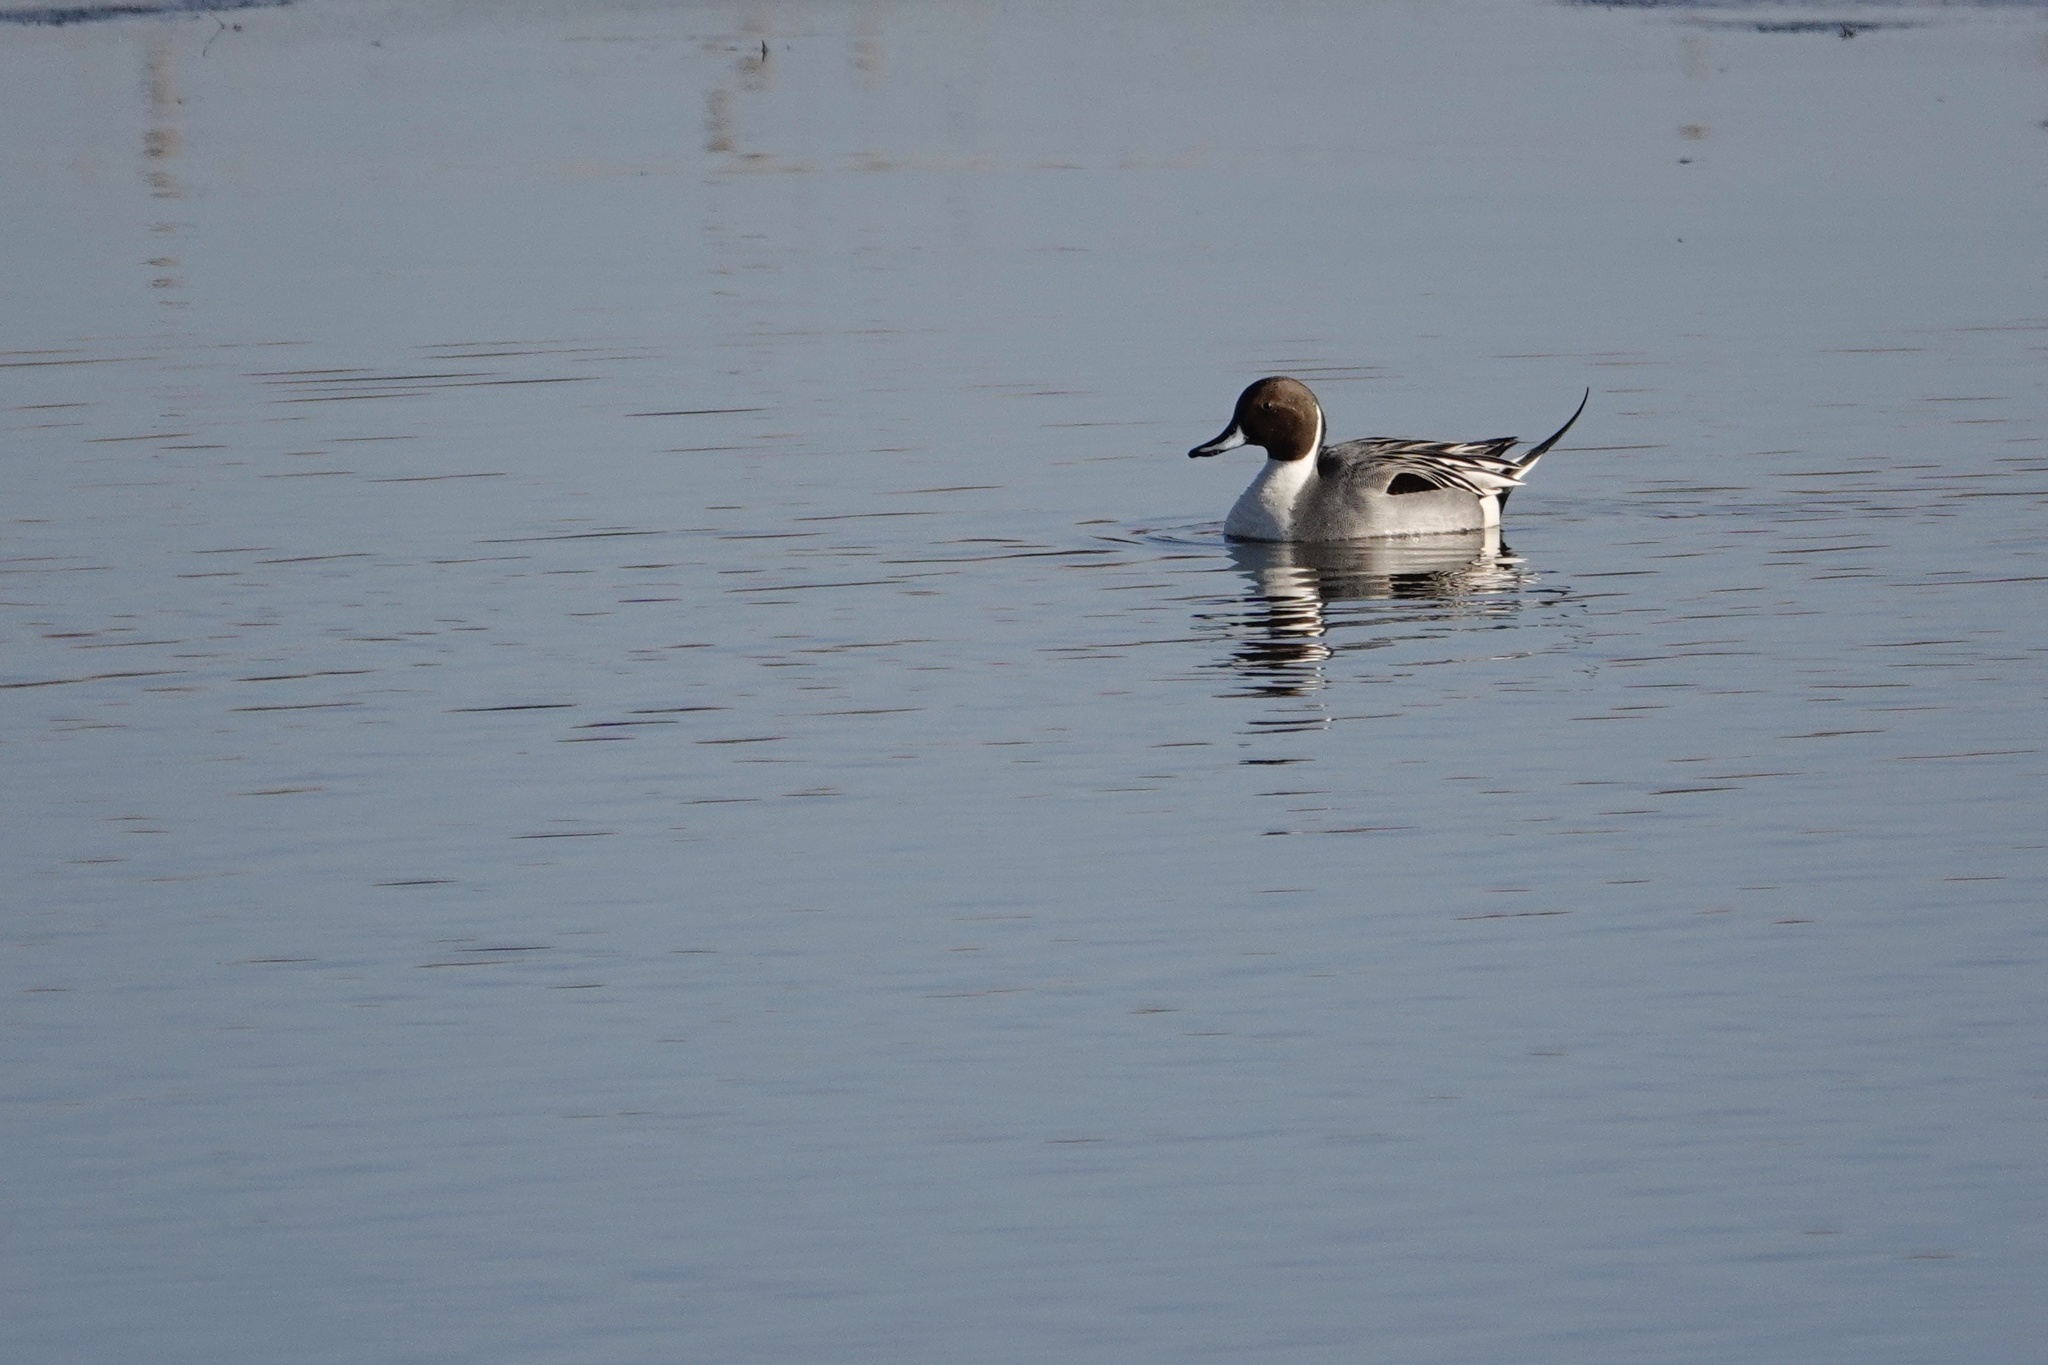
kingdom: Animalia
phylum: Chordata
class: Aves
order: Anseriformes
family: Anatidae
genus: Anas
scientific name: Anas acuta
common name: Northern pintail
